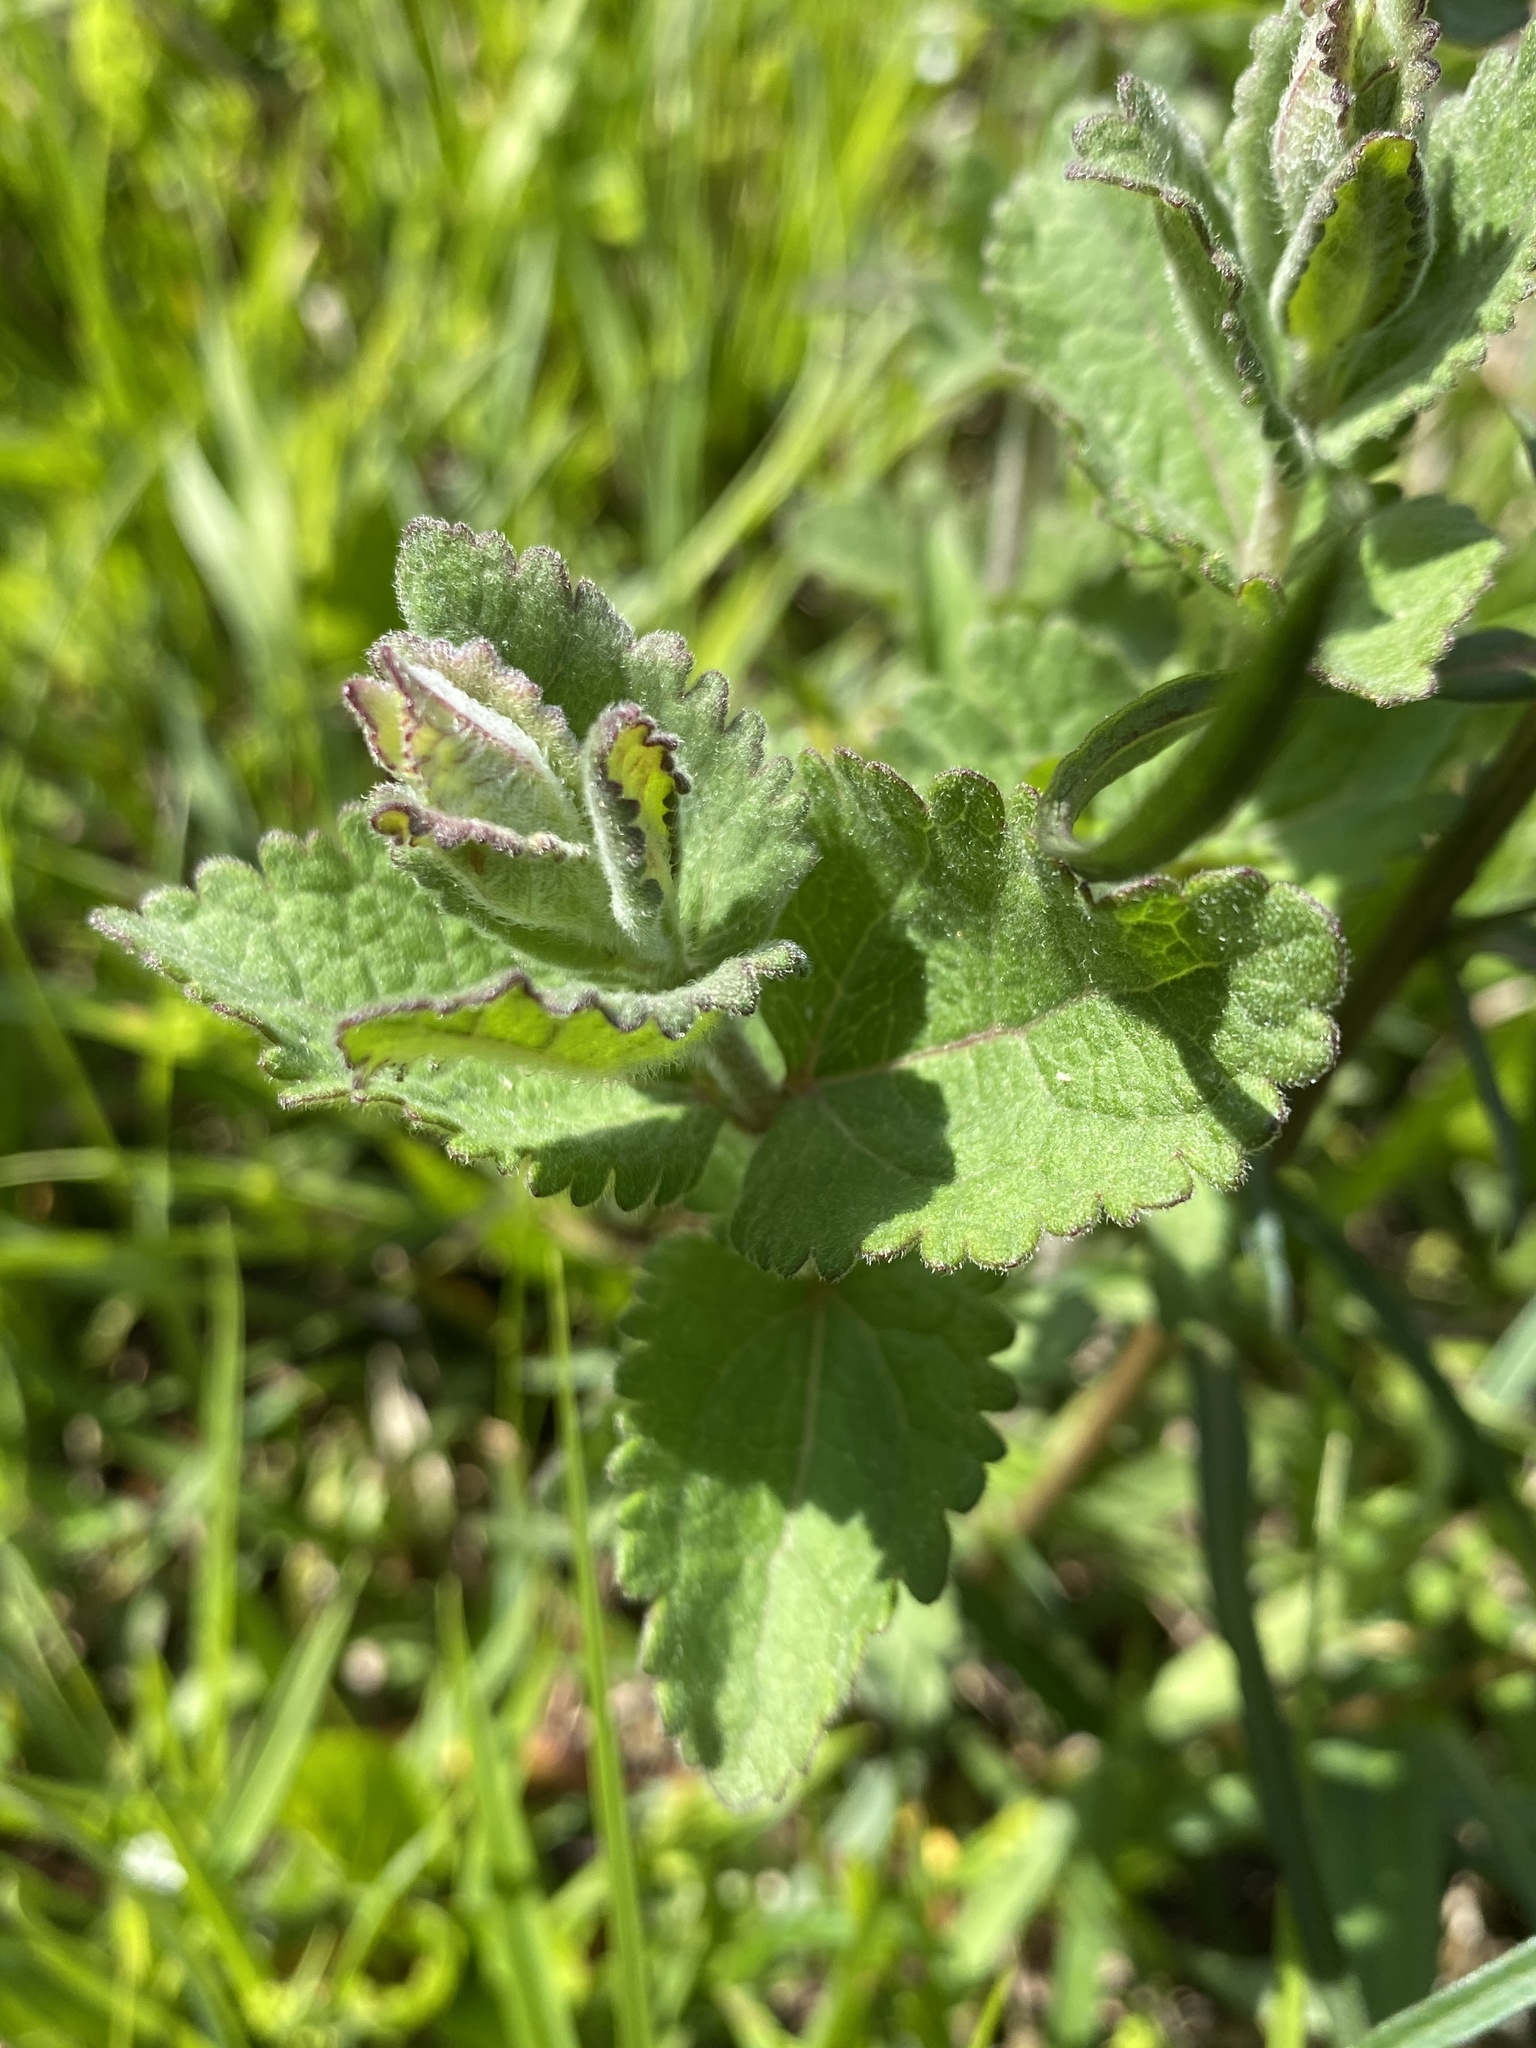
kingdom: Plantae
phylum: Tracheophyta
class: Magnoliopsida
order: Asterales
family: Asteraceae
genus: Eupatorium
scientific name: Eupatorium rotundifolium
